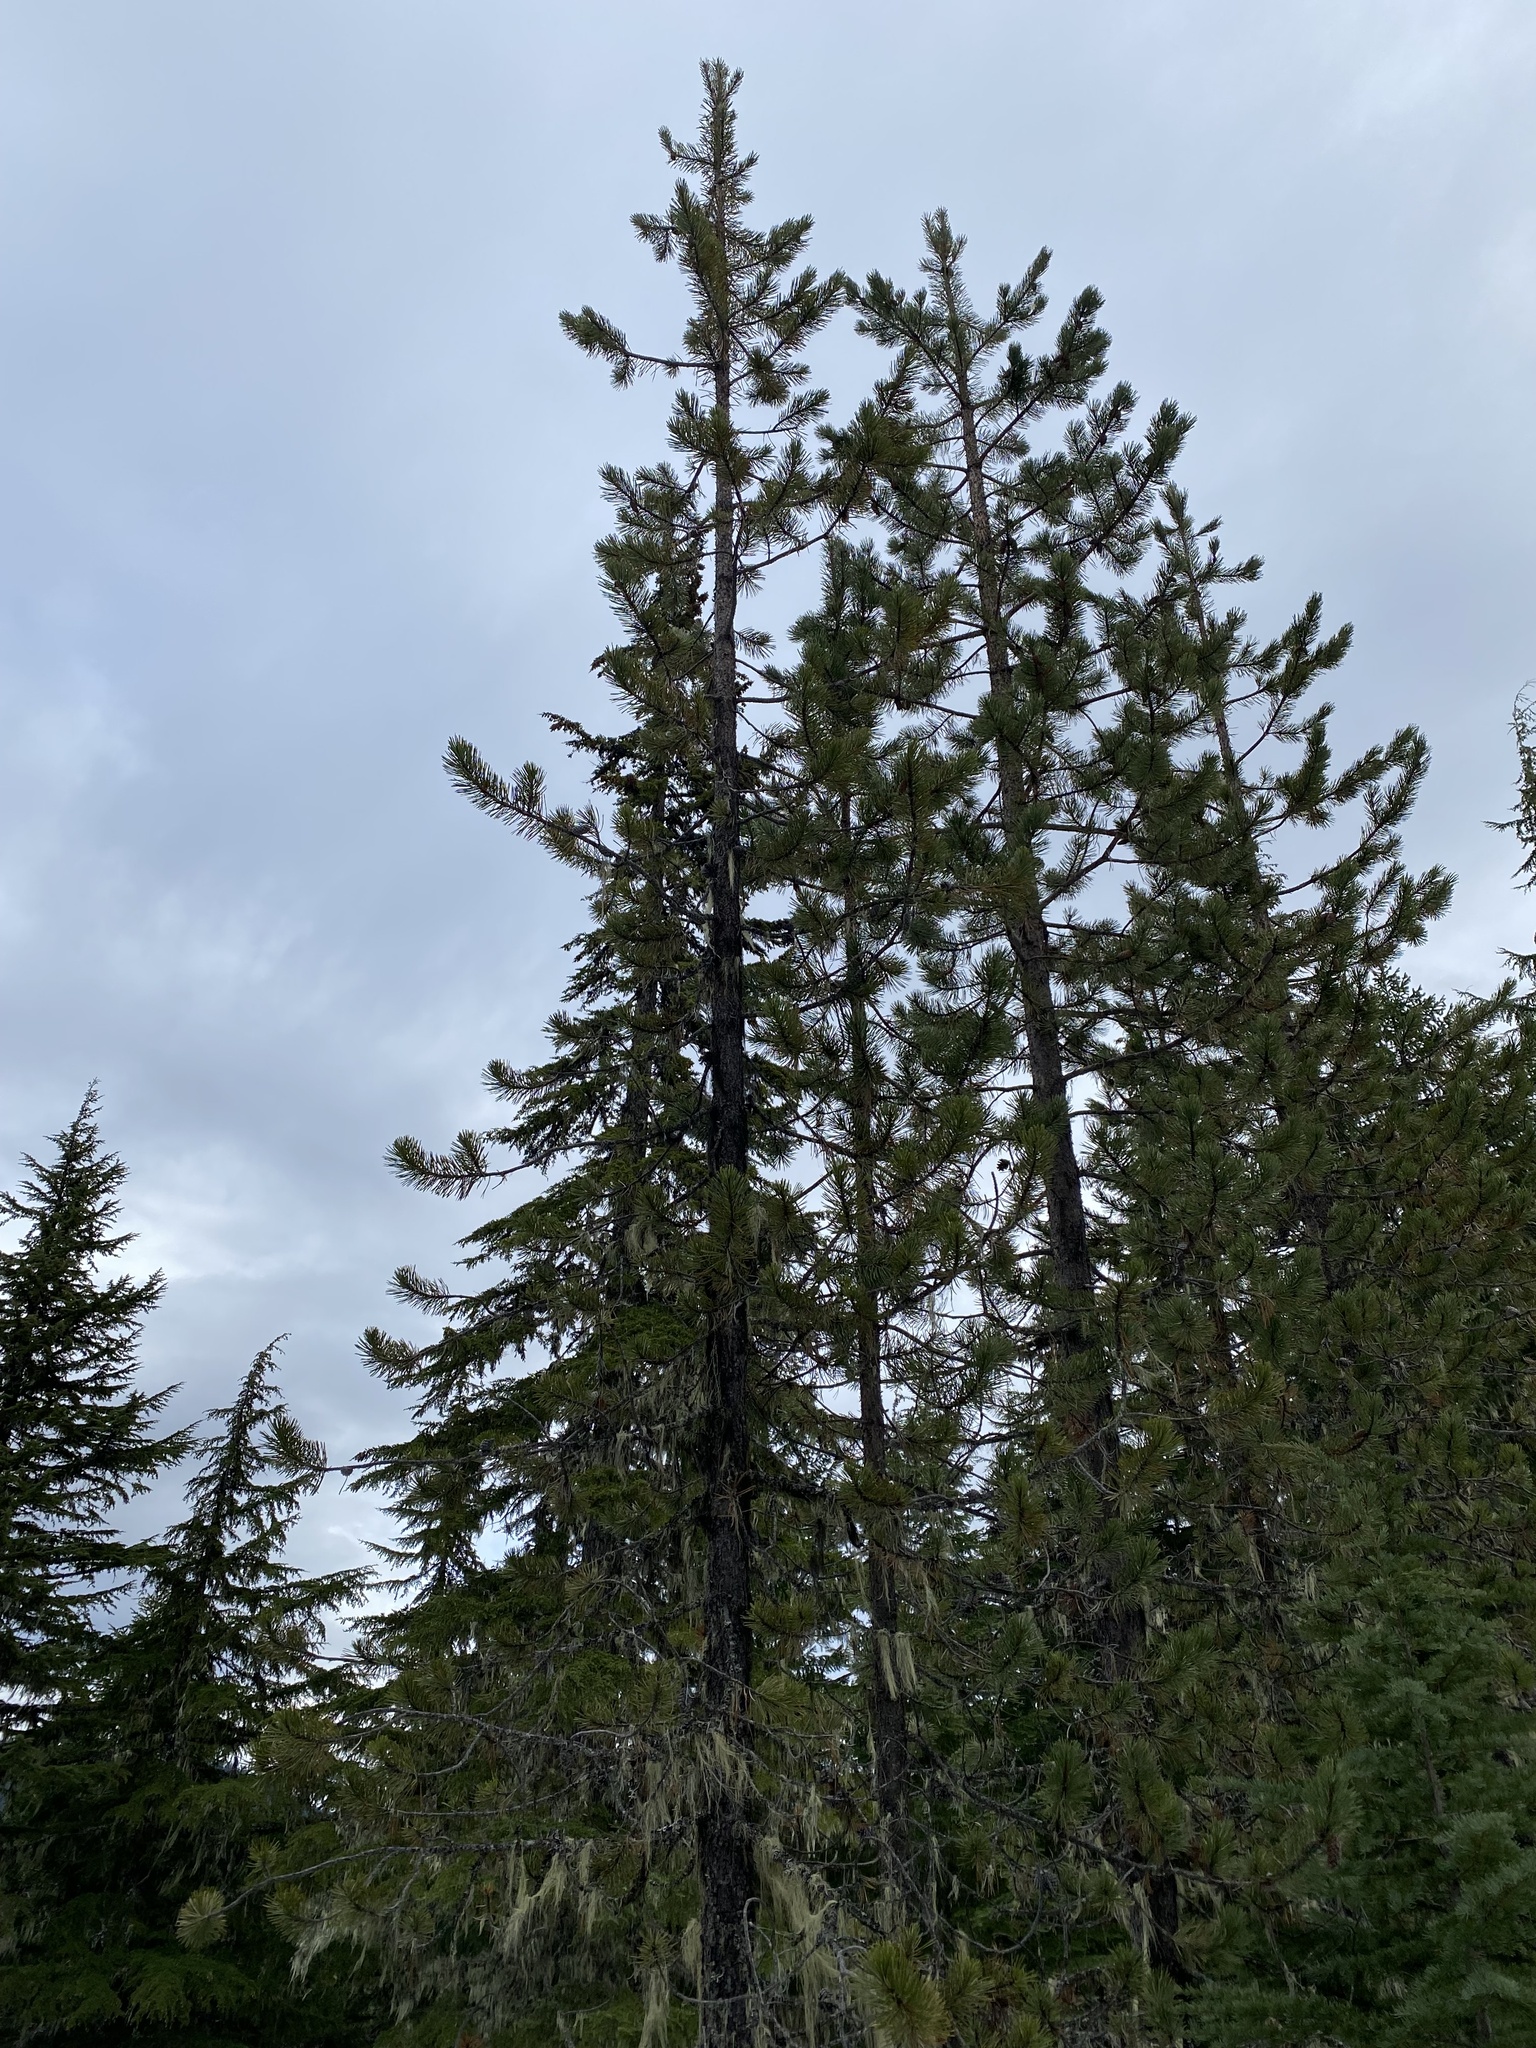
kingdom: Plantae
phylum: Tracheophyta
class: Pinopsida
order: Pinales
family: Pinaceae
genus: Pinus
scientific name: Pinus contorta
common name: Lodgepole pine
